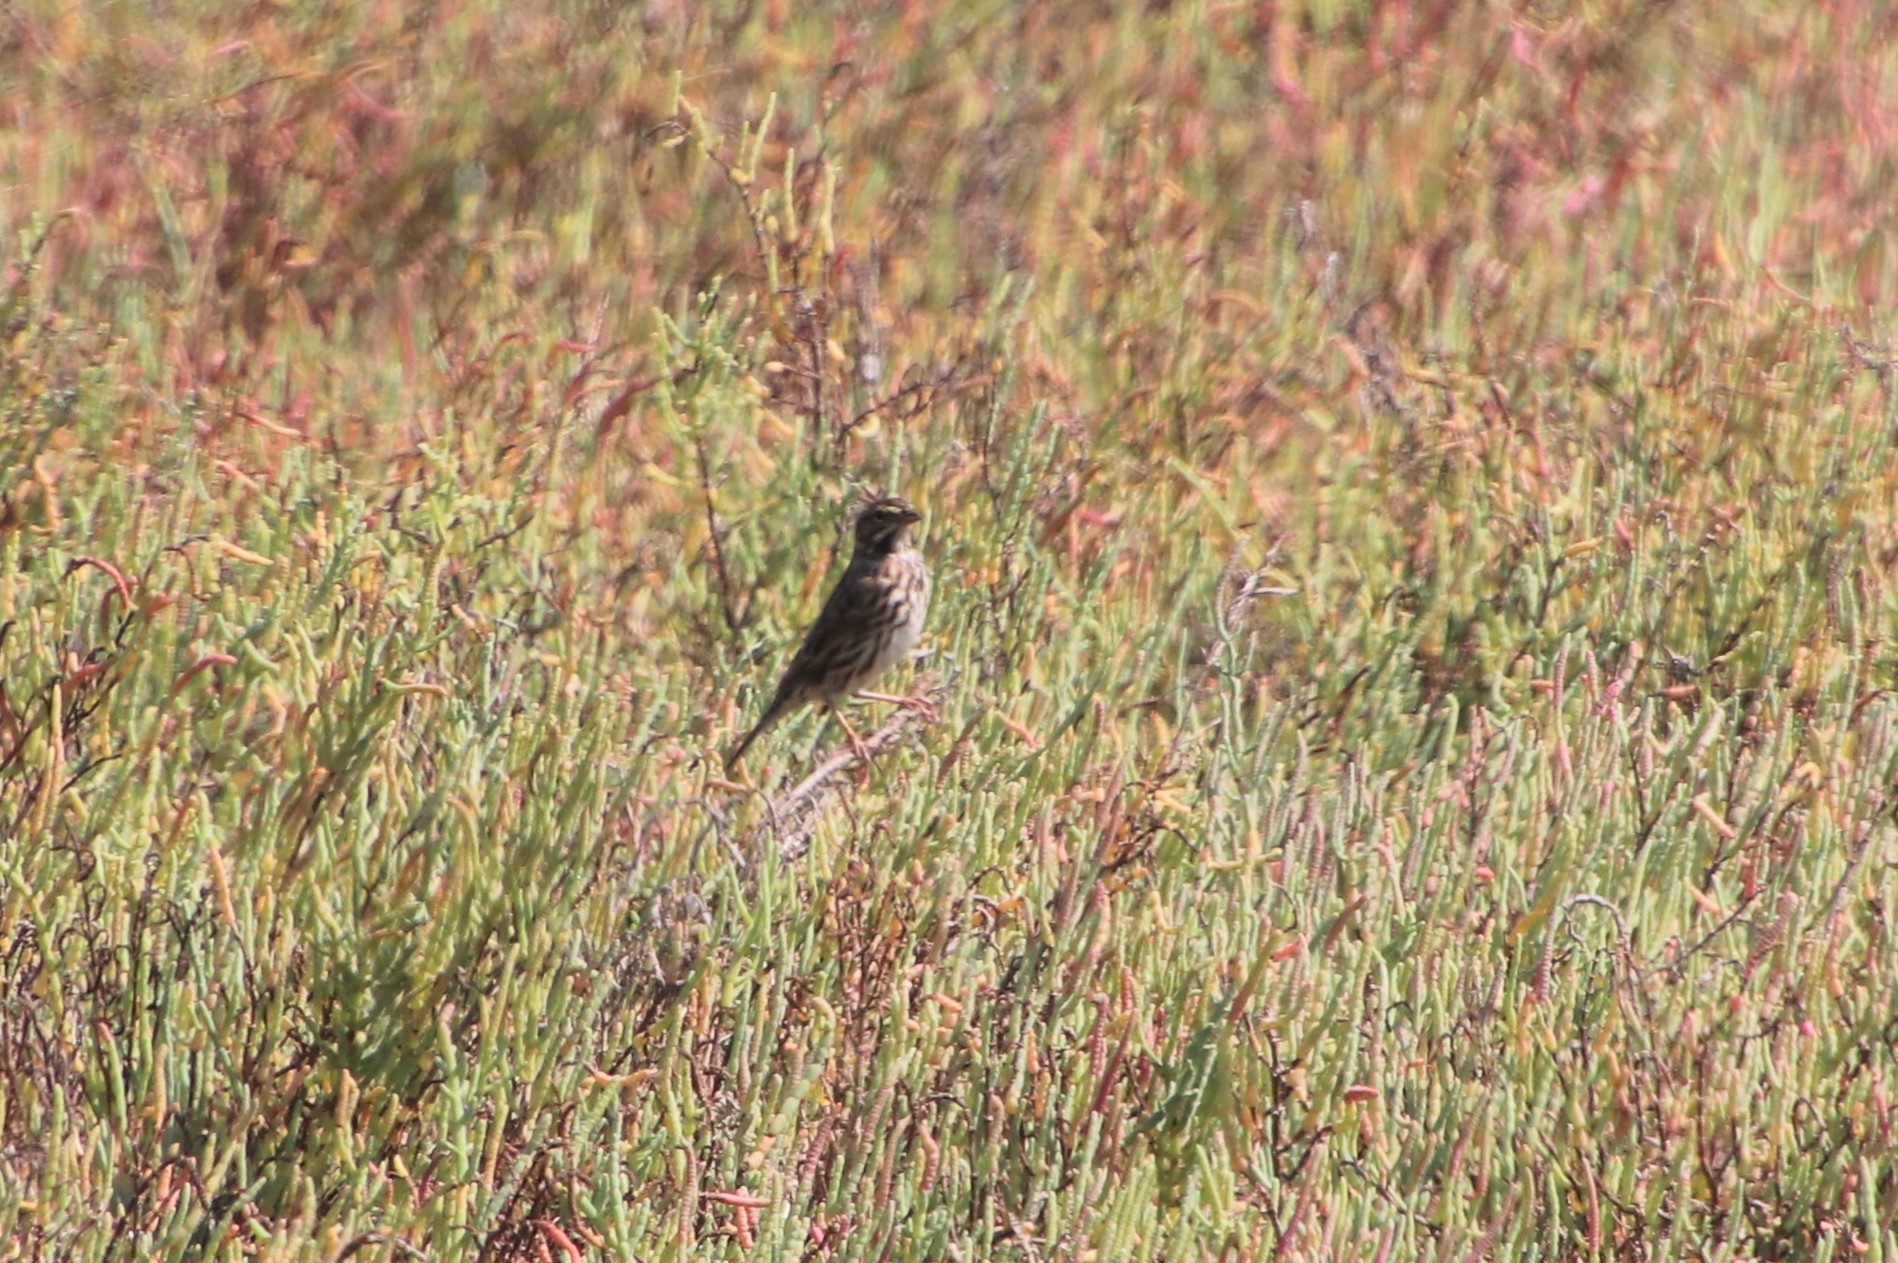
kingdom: Animalia
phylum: Chordata
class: Aves
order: Passeriformes
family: Passerellidae
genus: Passerculus
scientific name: Passerculus sandwichensis
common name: Savannah sparrow
